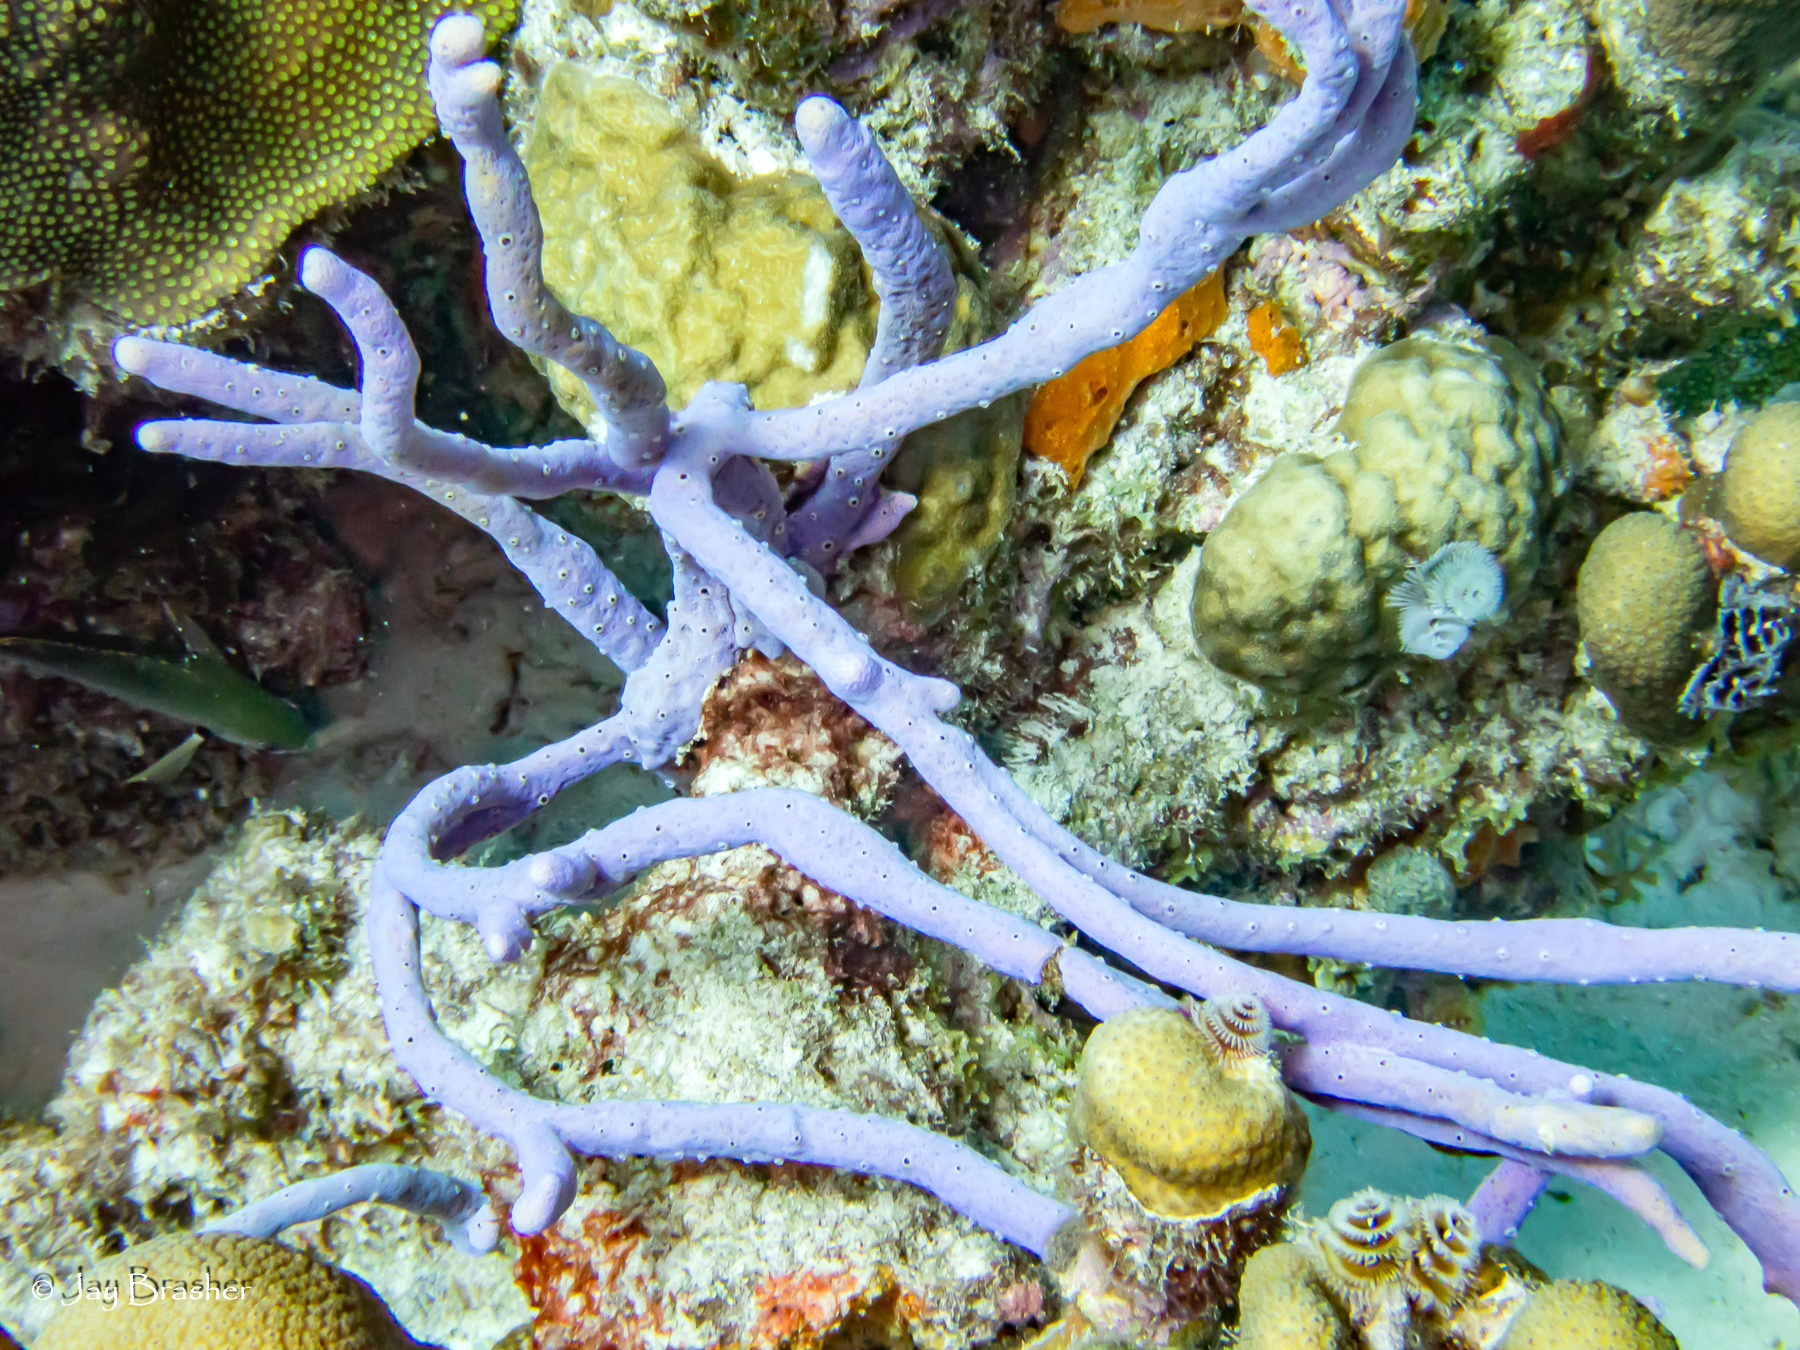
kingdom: Animalia
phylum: Porifera
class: Demospongiae
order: Verongiida
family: Aplysinidae
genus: Aplysina
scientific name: Aplysina cauliformis
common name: Branching candle sponge
